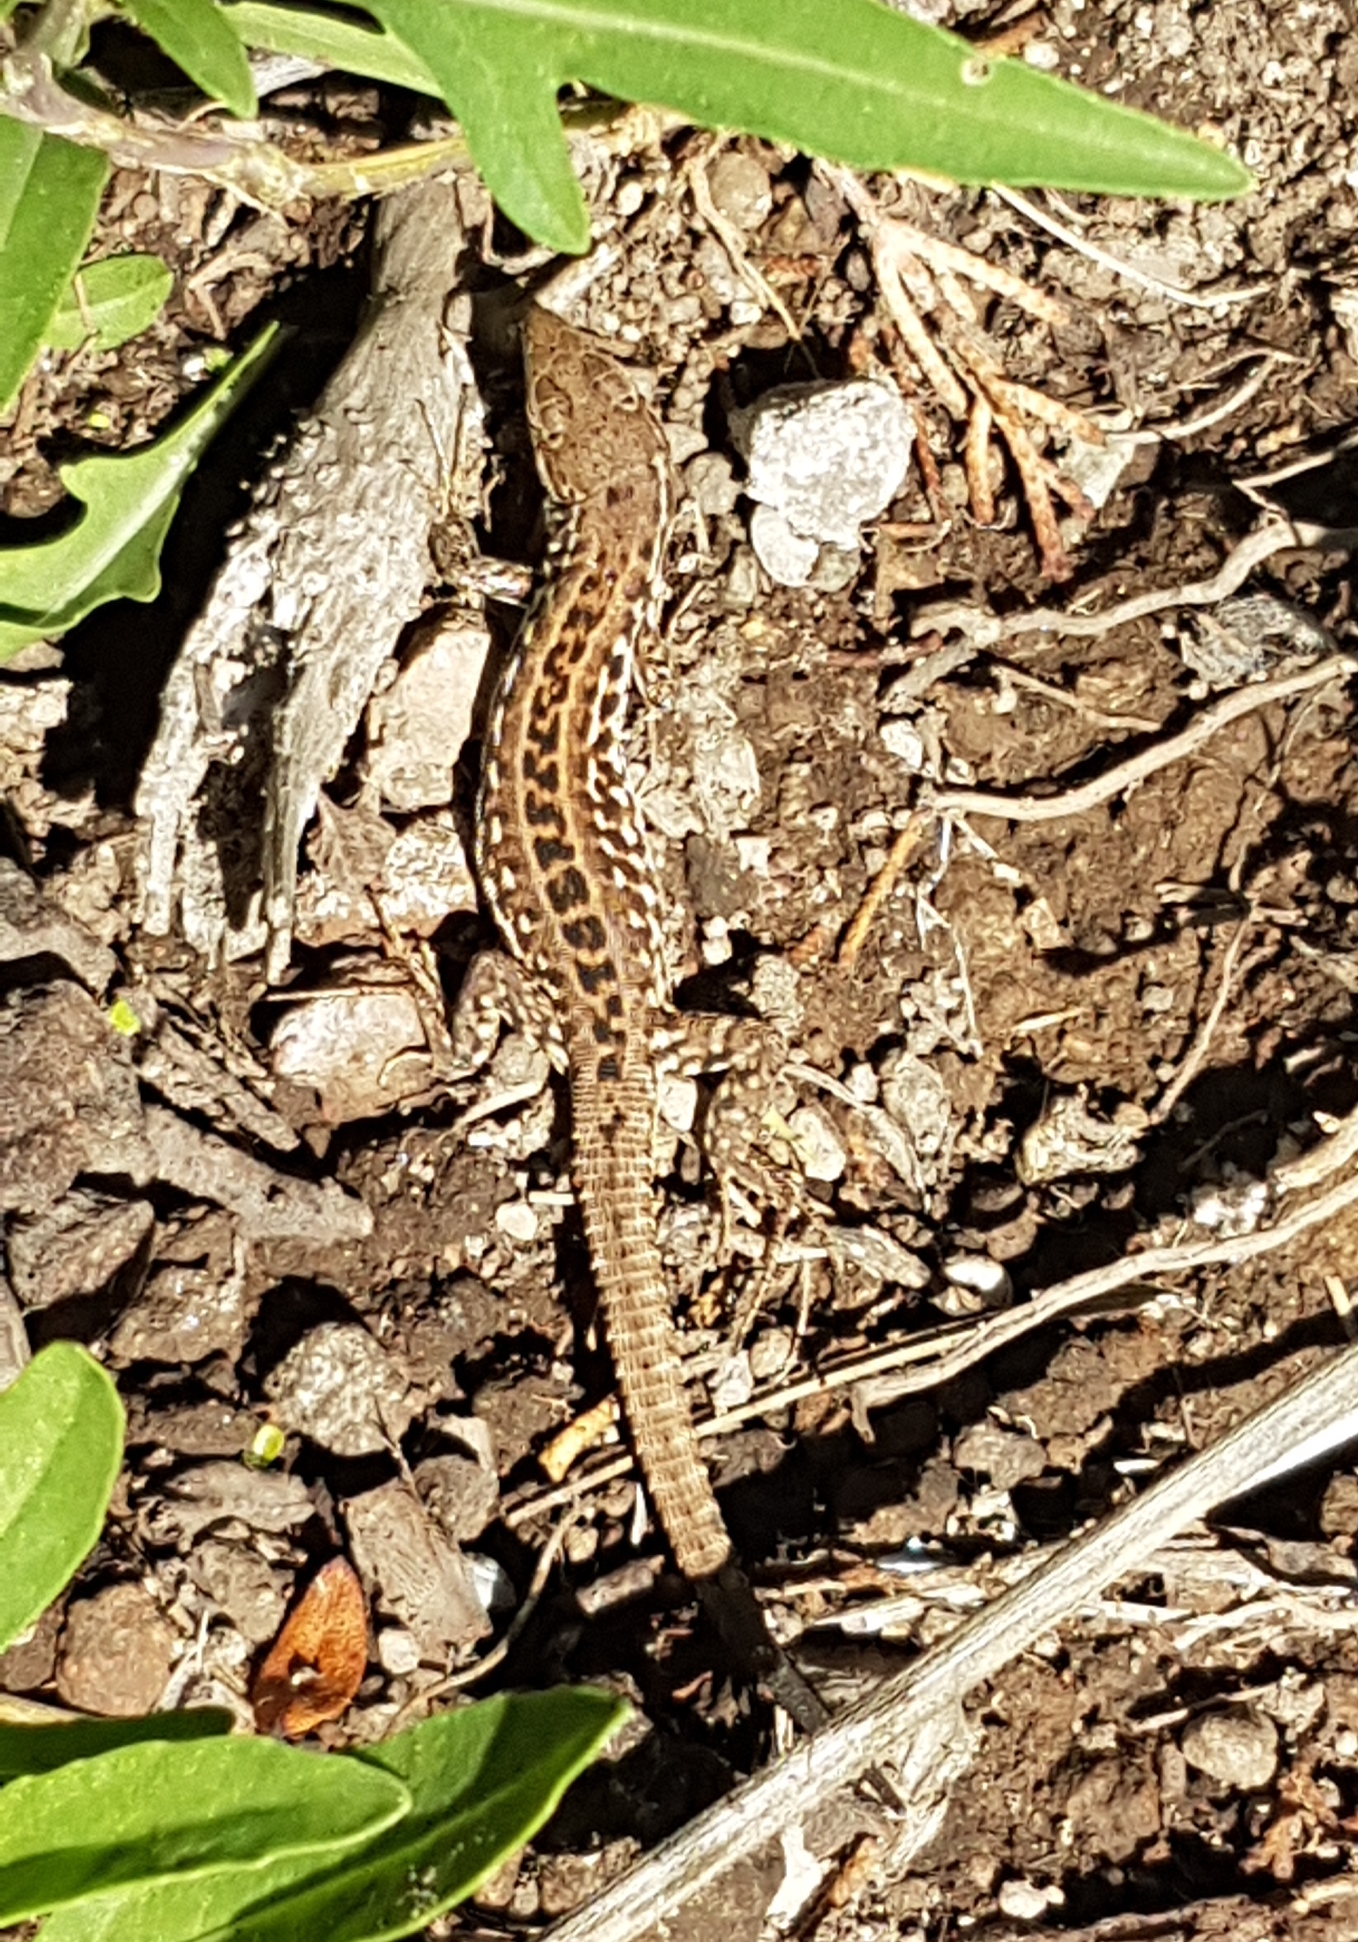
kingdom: Animalia
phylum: Chordata
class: Squamata
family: Lacertidae
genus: Podarcis
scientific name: Podarcis siculus
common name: Italian wall lizard
